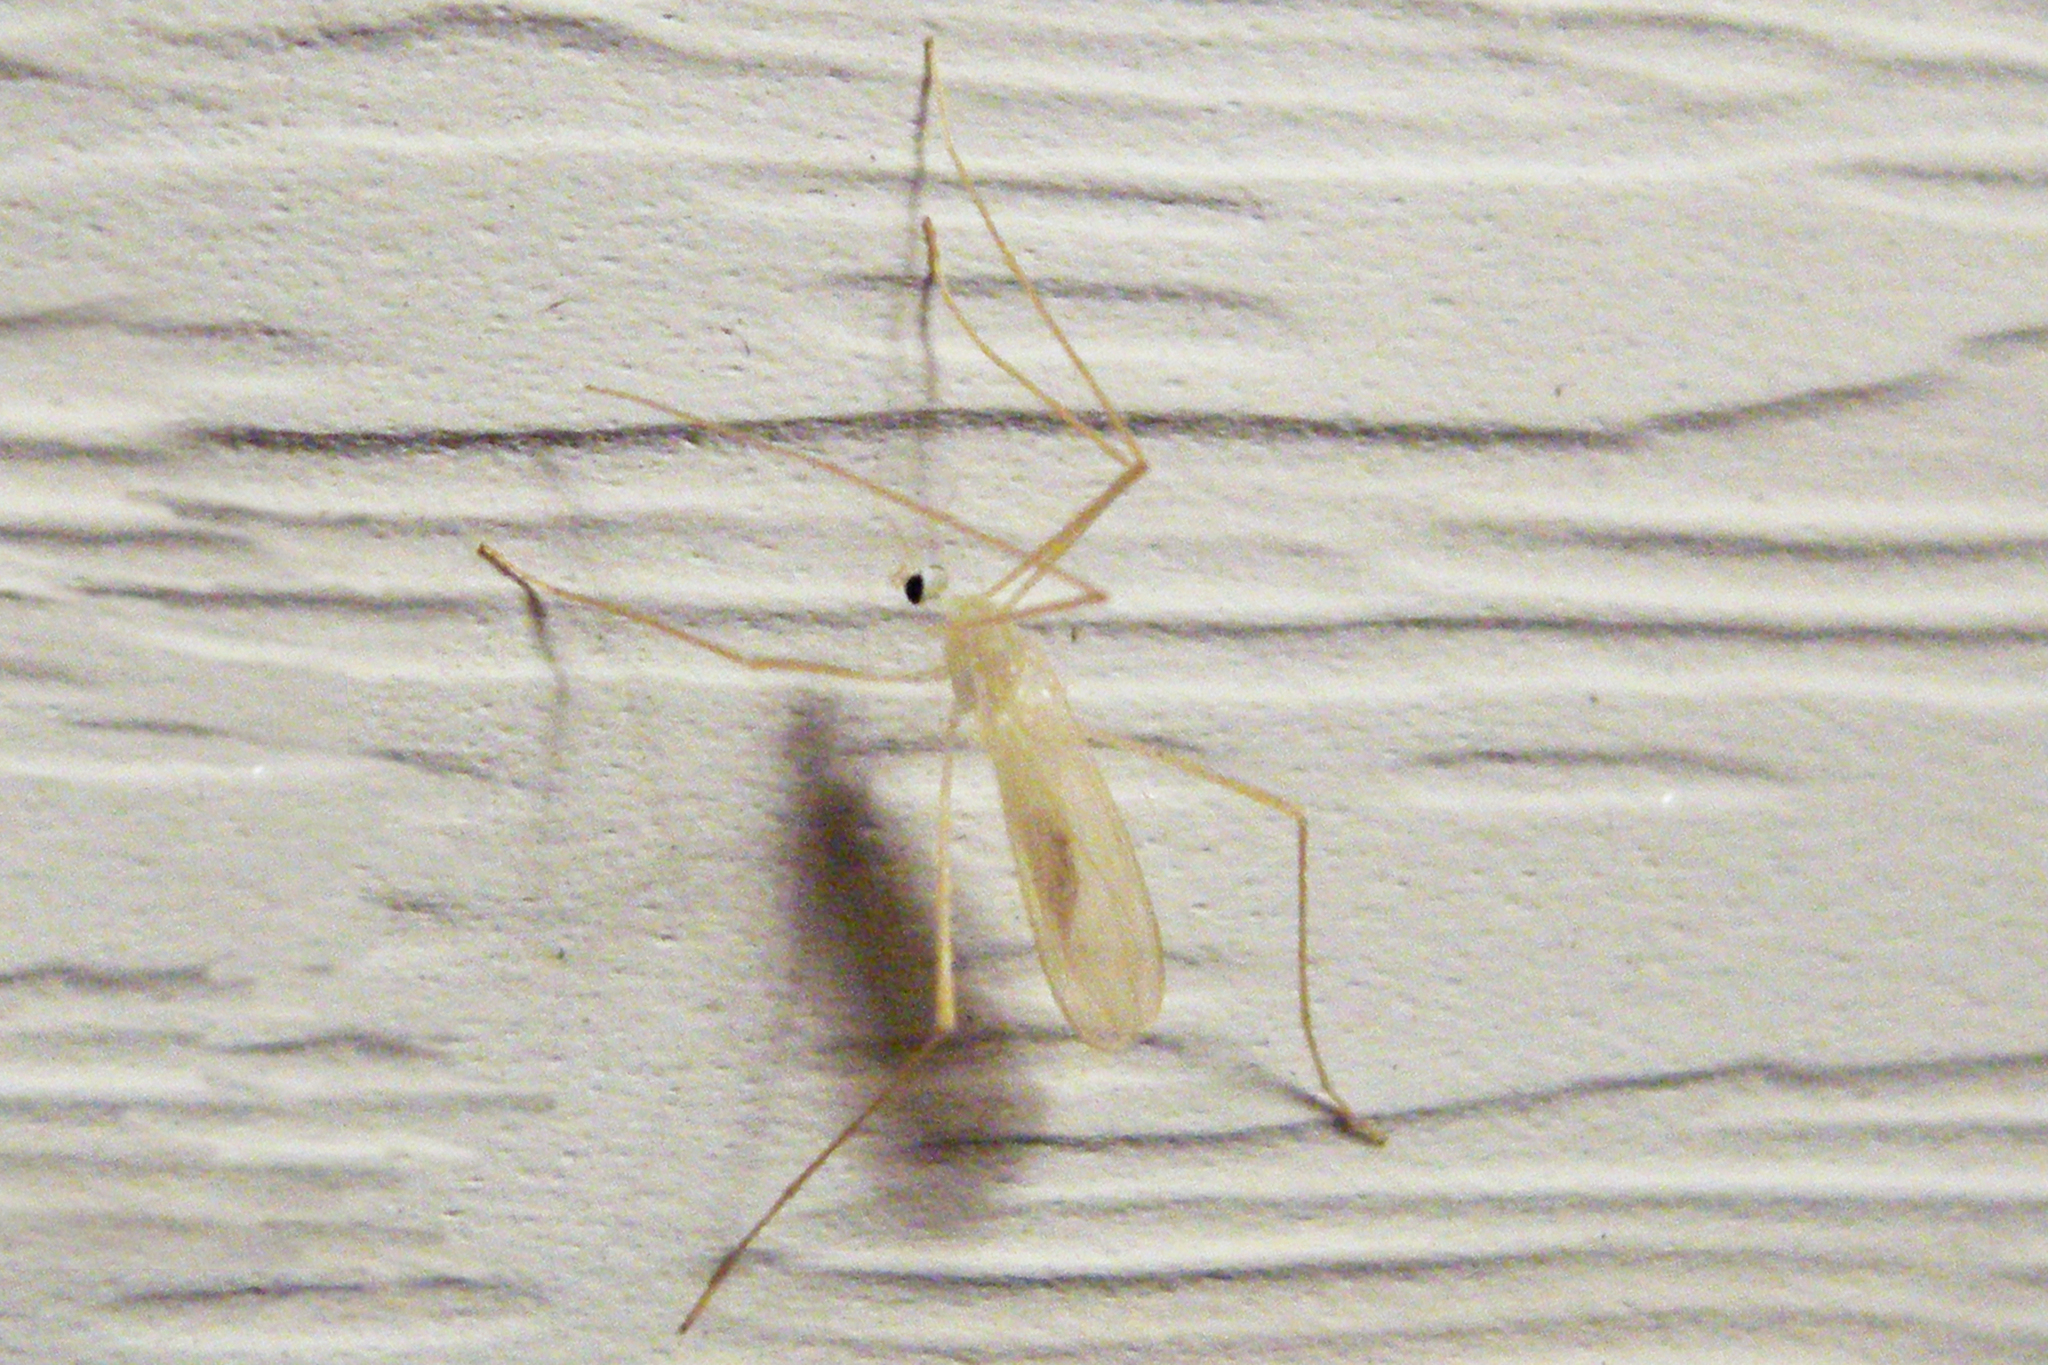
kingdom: Animalia
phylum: Arthropoda
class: Insecta
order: Diptera
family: Limoniidae
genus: Erioptera
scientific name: Erioptera
